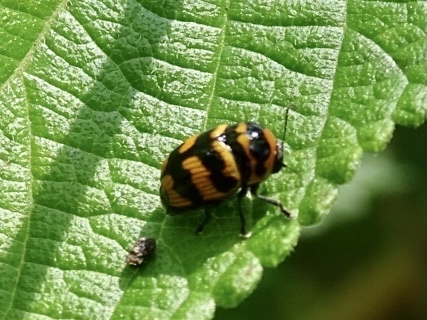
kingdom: Animalia
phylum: Arthropoda
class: Insecta
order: Coleoptera
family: Chrysomelidae
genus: Cryptocephalus
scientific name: Cryptocephalus trifasciatus
